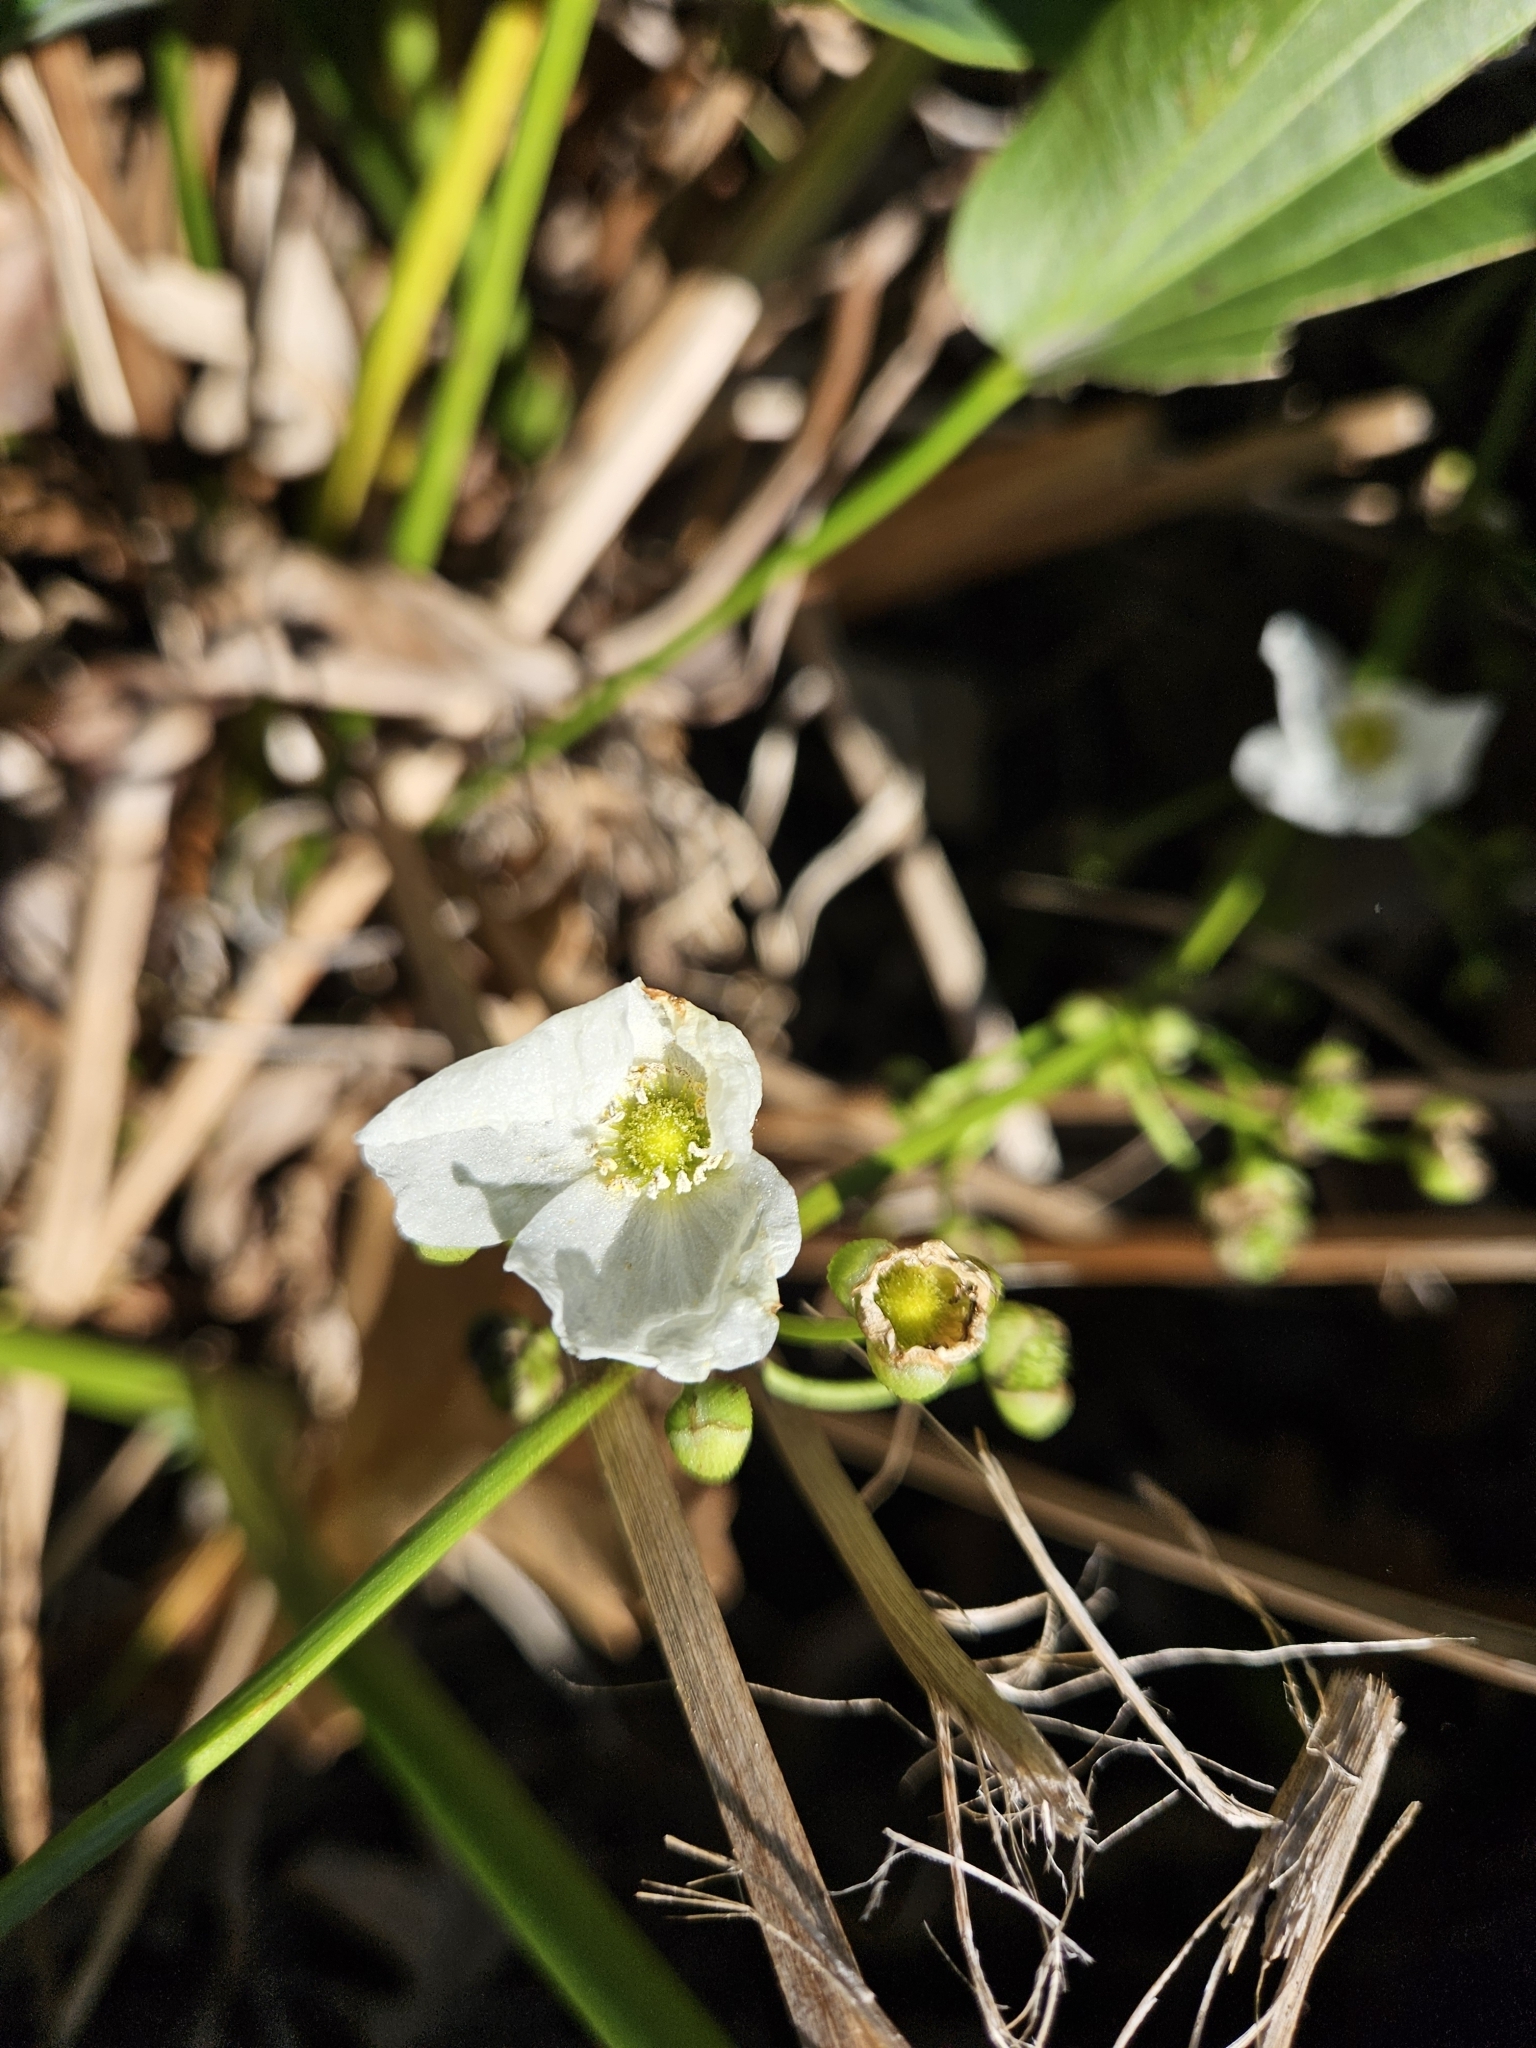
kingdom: Plantae
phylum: Tracheophyta
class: Liliopsida
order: Alismatales
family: Alismataceae
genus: Aquarius
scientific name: Aquarius cordifolius
